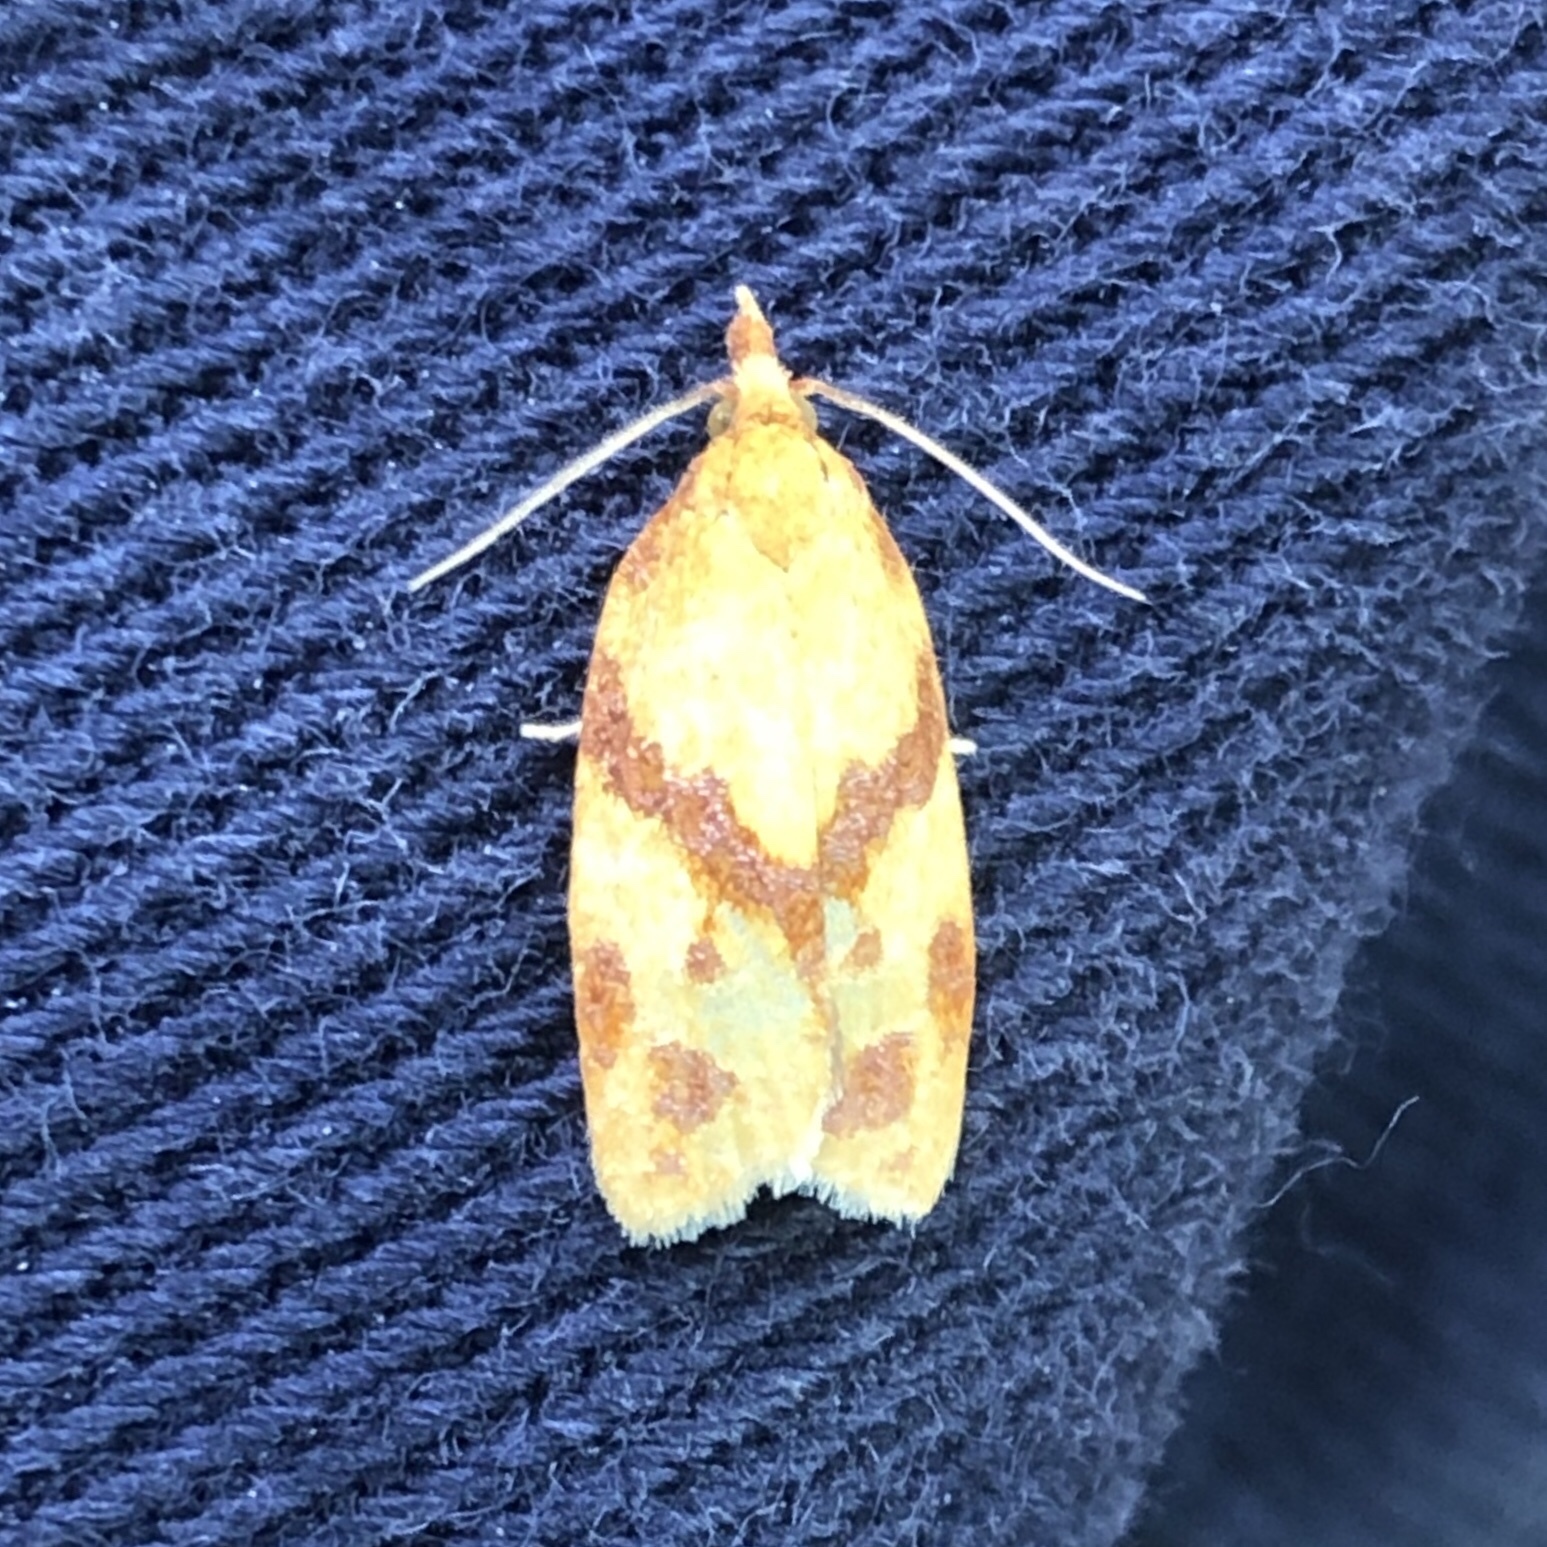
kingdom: Animalia
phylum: Arthropoda
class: Insecta
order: Lepidoptera
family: Tortricidae
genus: Sparganothis
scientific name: Sparganothis unifasciana
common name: One-lined sparganothis moth
